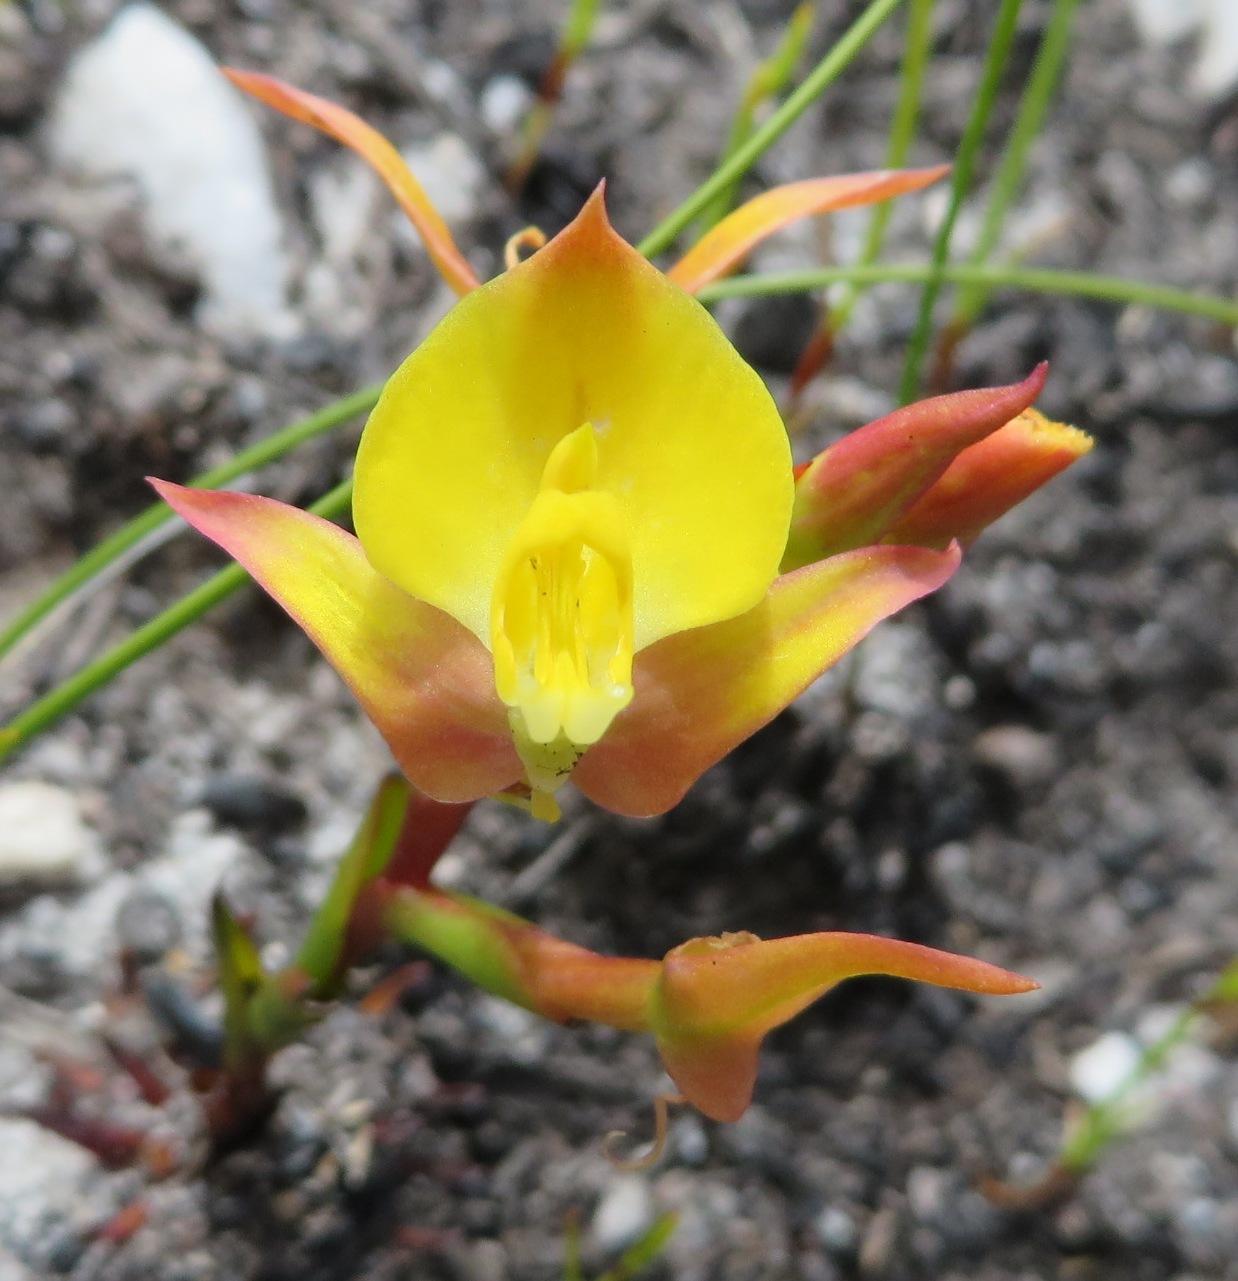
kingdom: Plantae
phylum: Tracheophyta
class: Liliopsida
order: Asparagales
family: Orchidaceae
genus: Disa
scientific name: Disa tenuifolia
